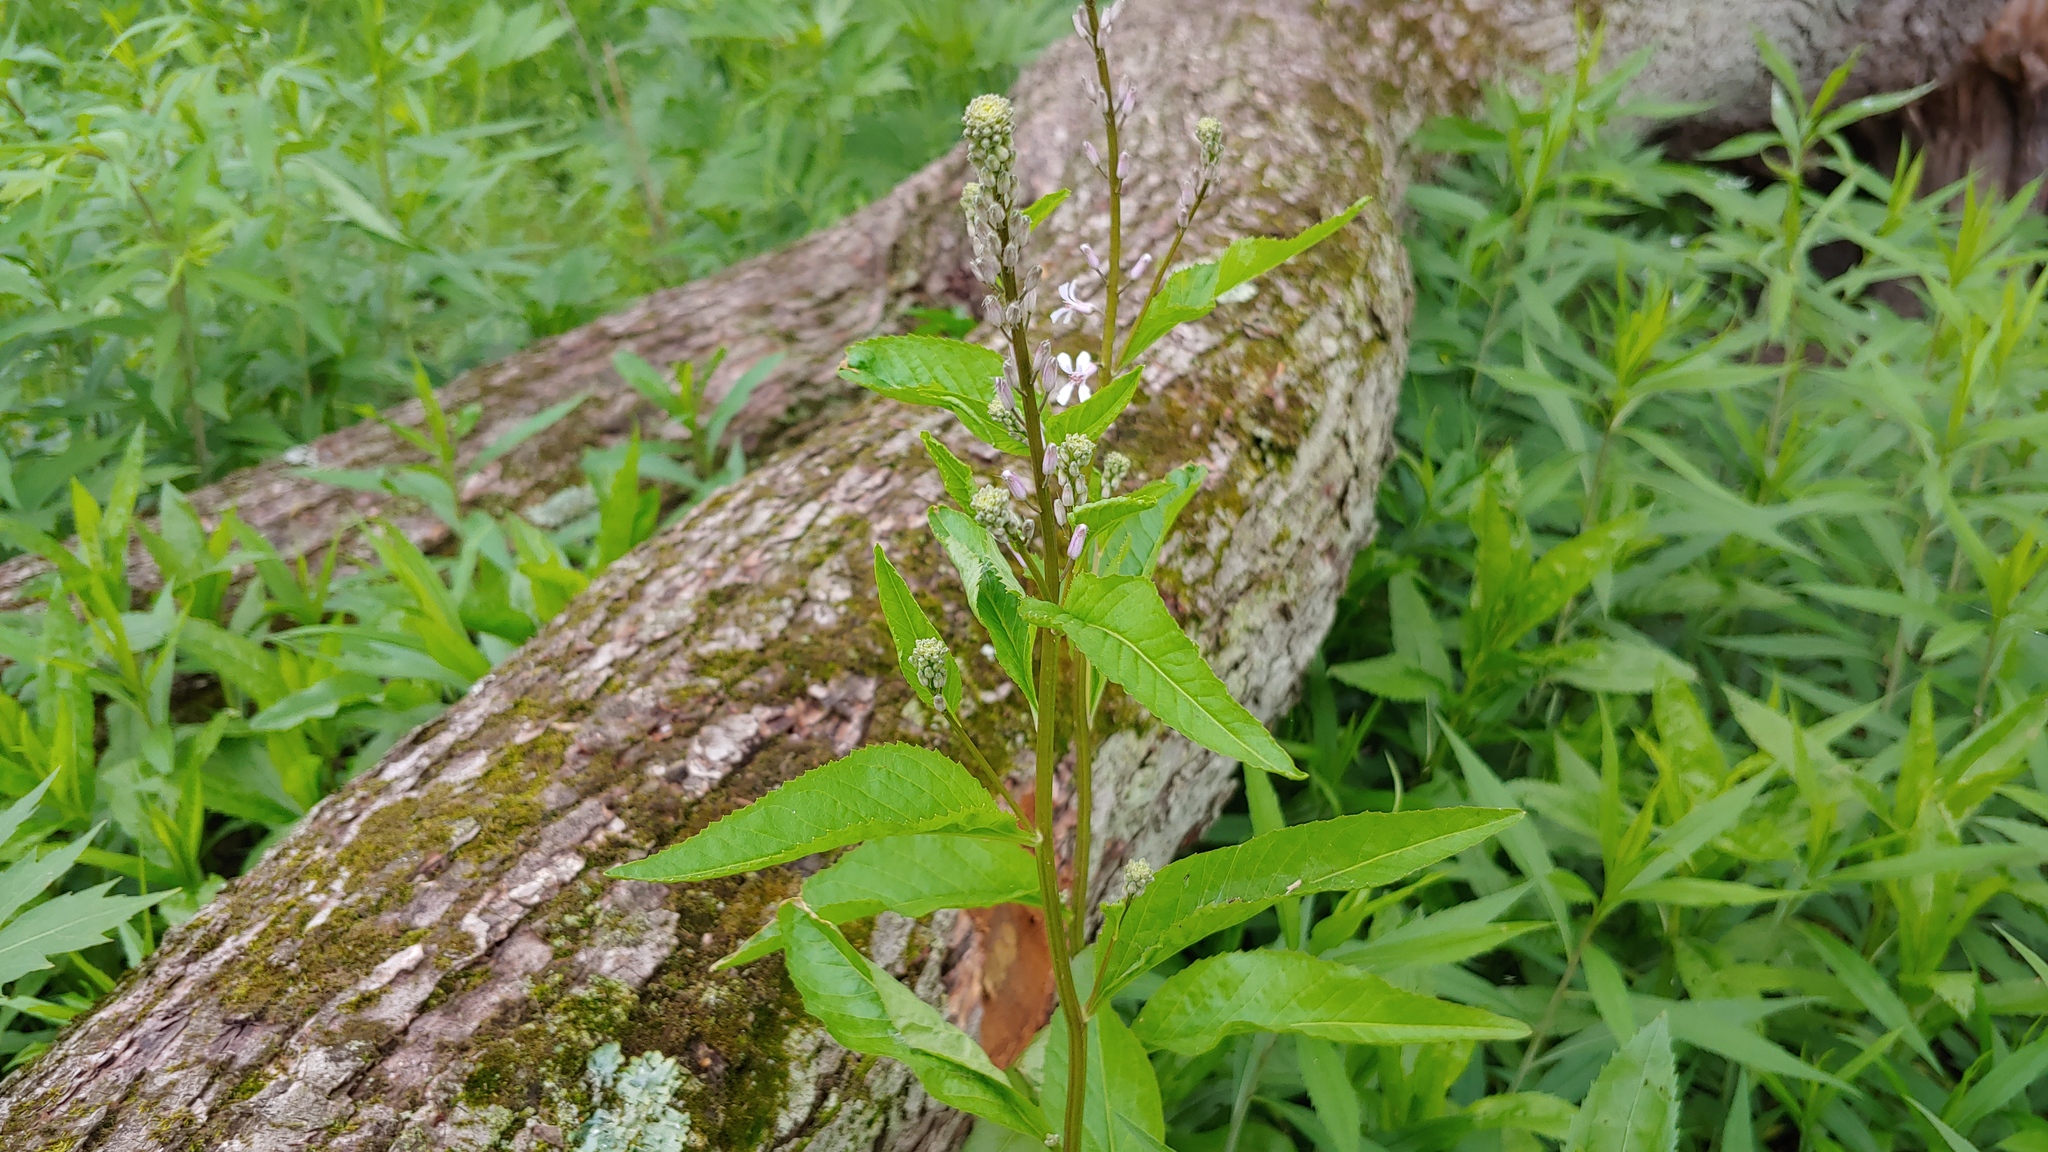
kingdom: Plantae
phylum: Tracheophyta
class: Magnoliopsida
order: Brassicales
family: Brassicaceae
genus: Iodanthus
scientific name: Iodanthus pinnatifidus
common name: Violet rocket
